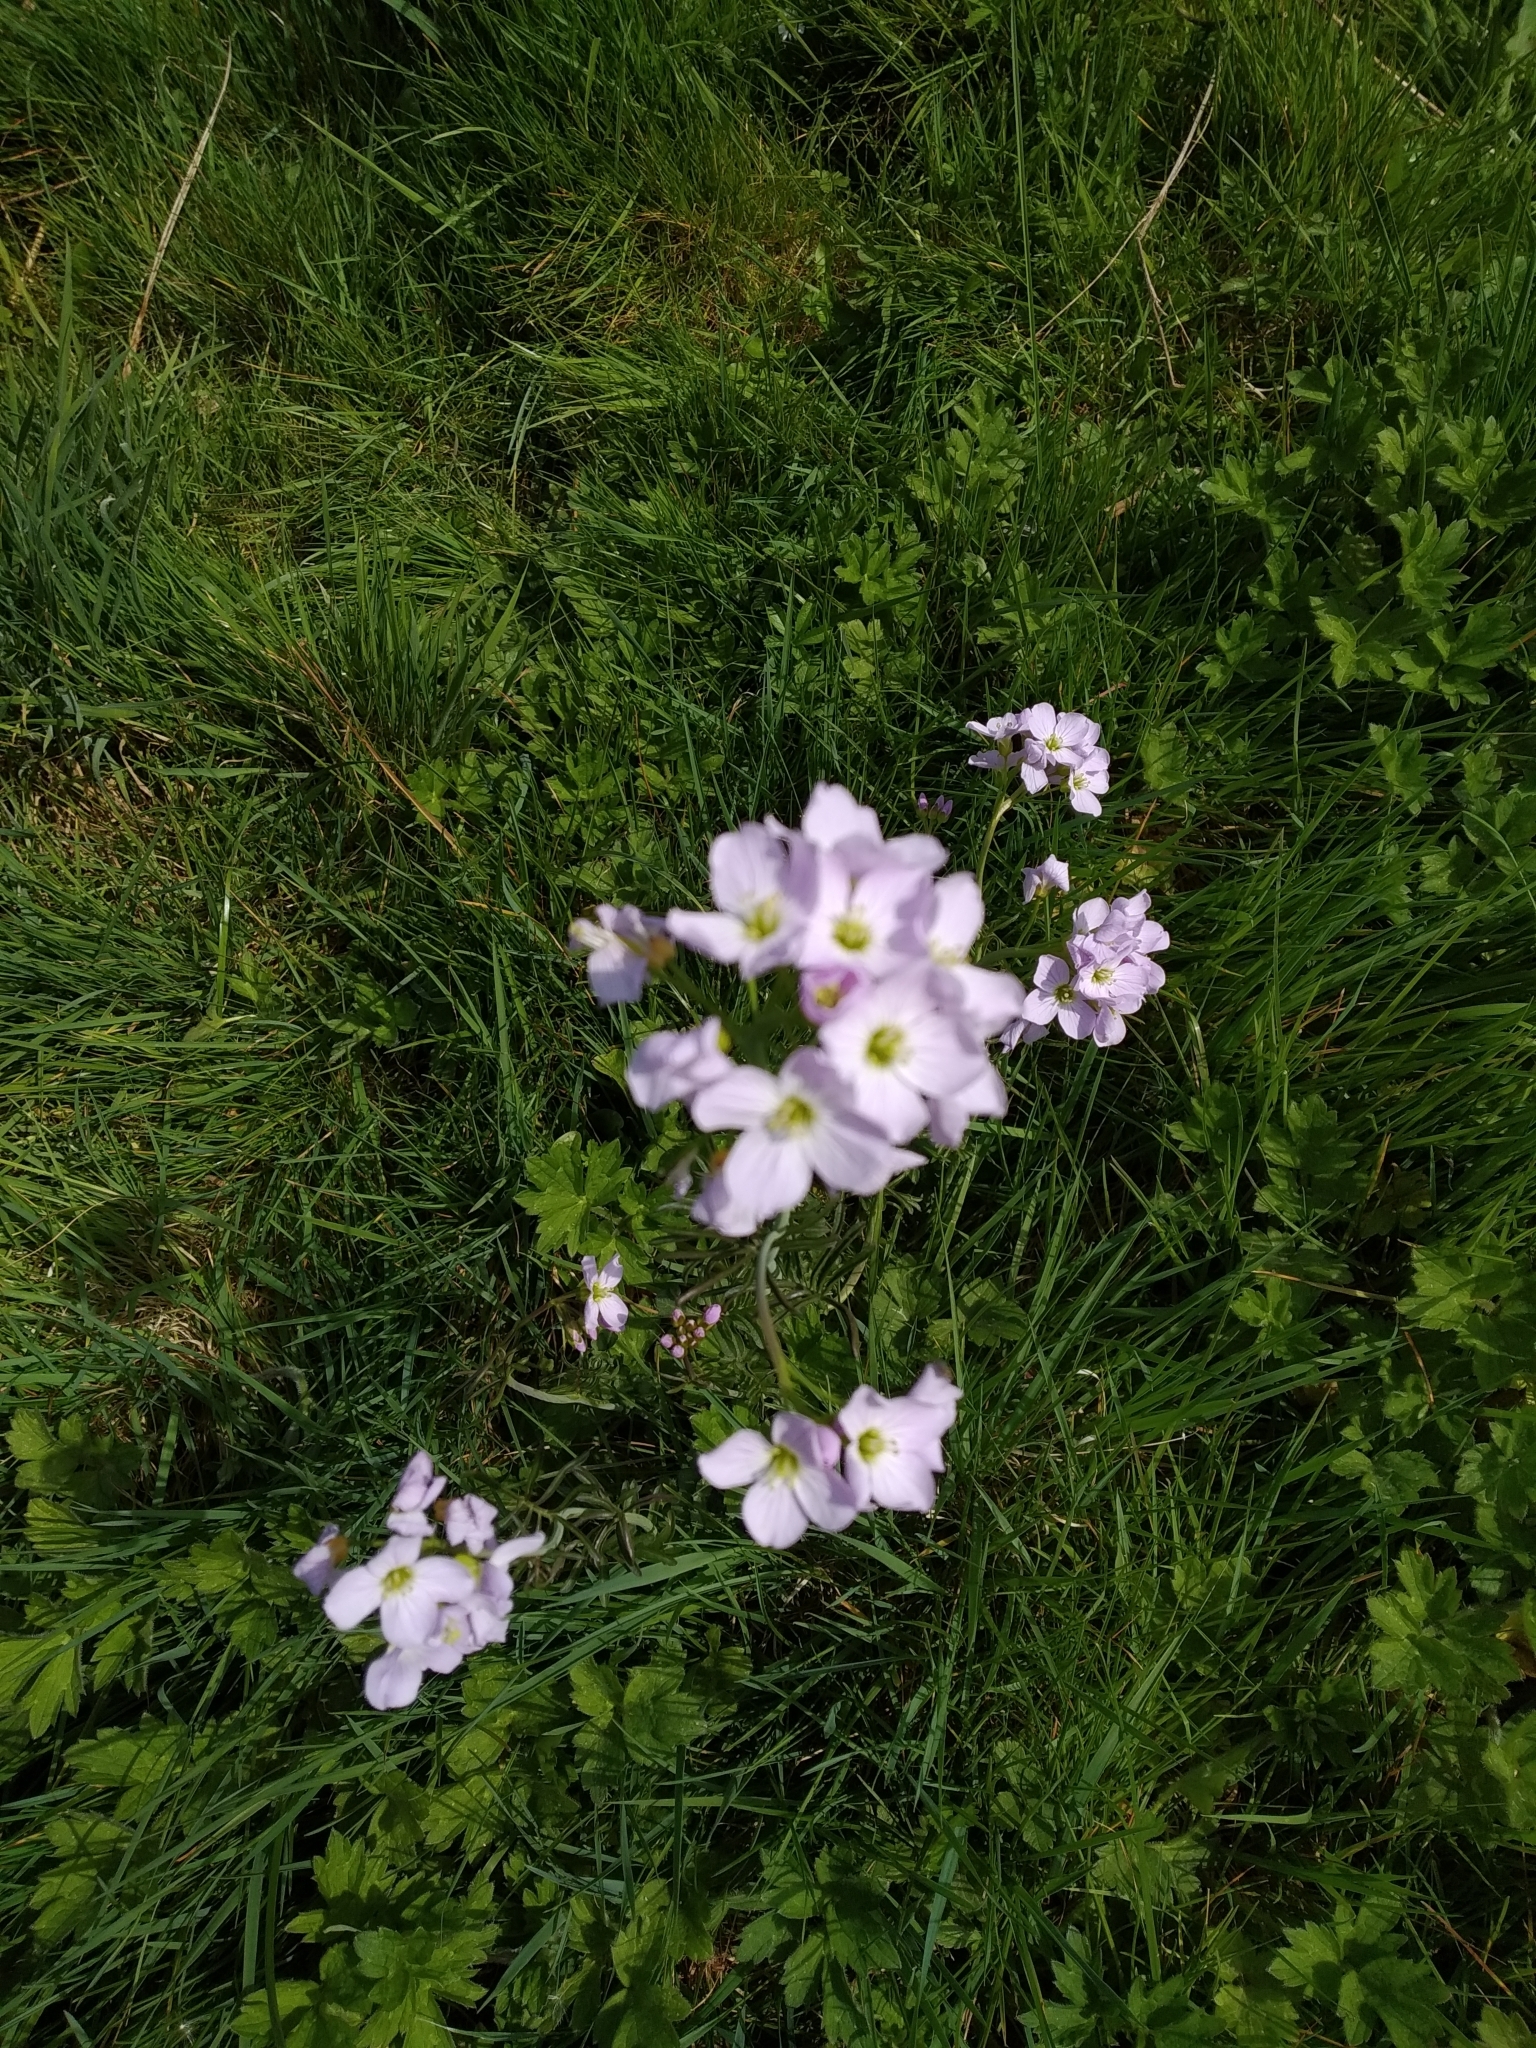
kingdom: Plantae
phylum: Tracheophyta
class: Magnoliopsida
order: Brassicales
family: Brassicaceae
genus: Cardamine
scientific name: Cardamine pratensis
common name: Cuckoo flower
